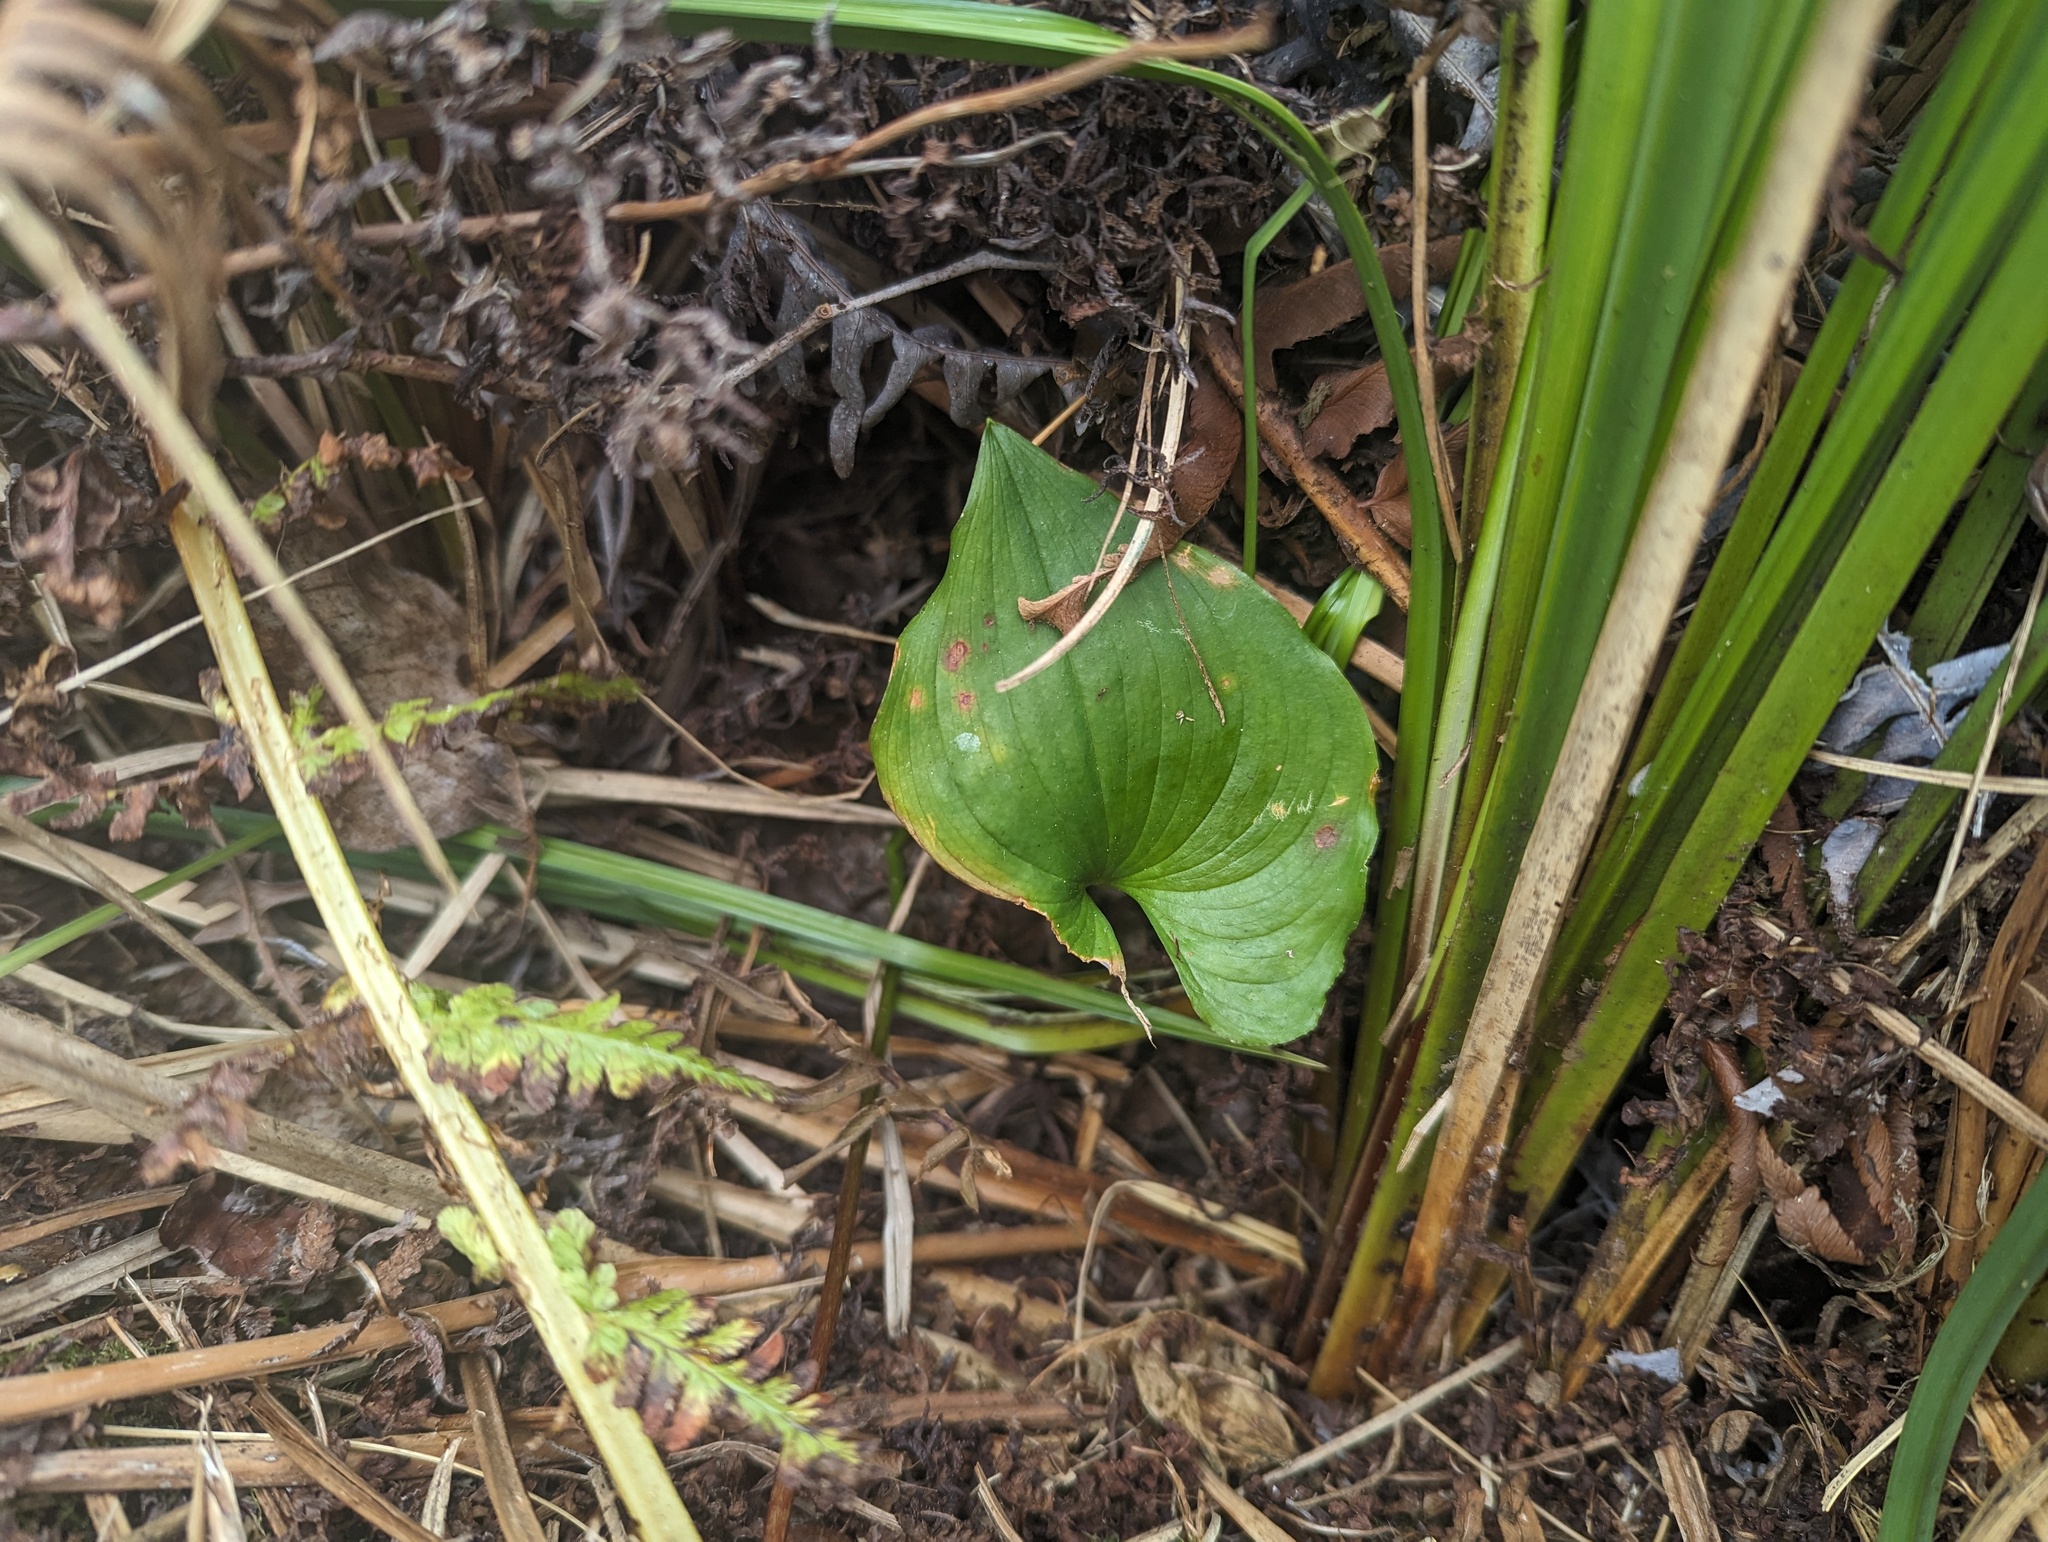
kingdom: Plantae
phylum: Tracheophyta
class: Liliopsida
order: Asparagales
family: Asparagaceae
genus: Maianthemum
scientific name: Maianthemum dilatatum
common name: False lily-of-the-valley
